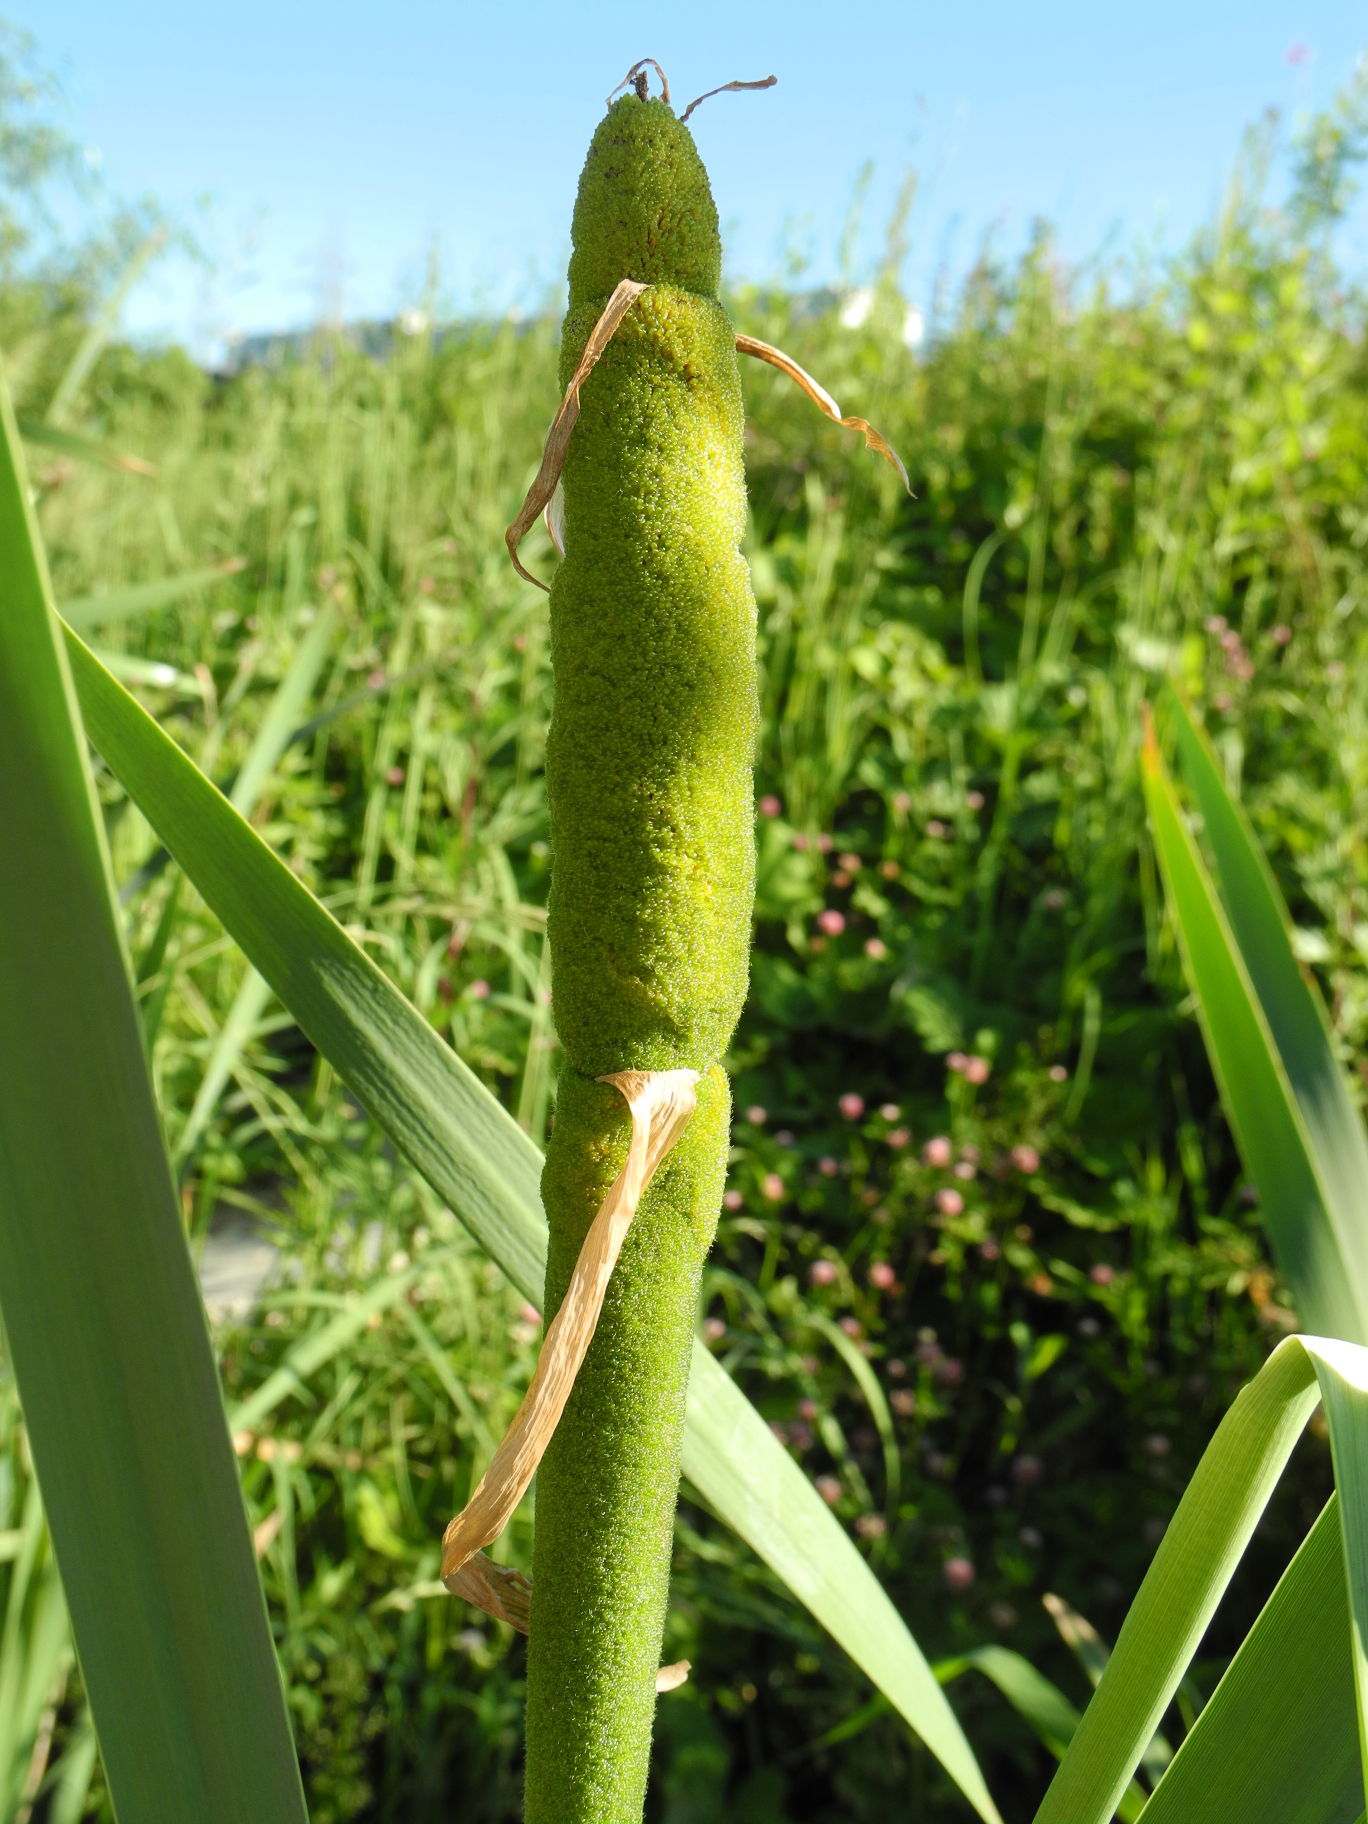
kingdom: Plantae
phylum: Tracheophyta
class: Liliopsida
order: Poales
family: Typhaceae
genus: Typha
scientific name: Typha latifolia
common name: Broadleaf cattail
